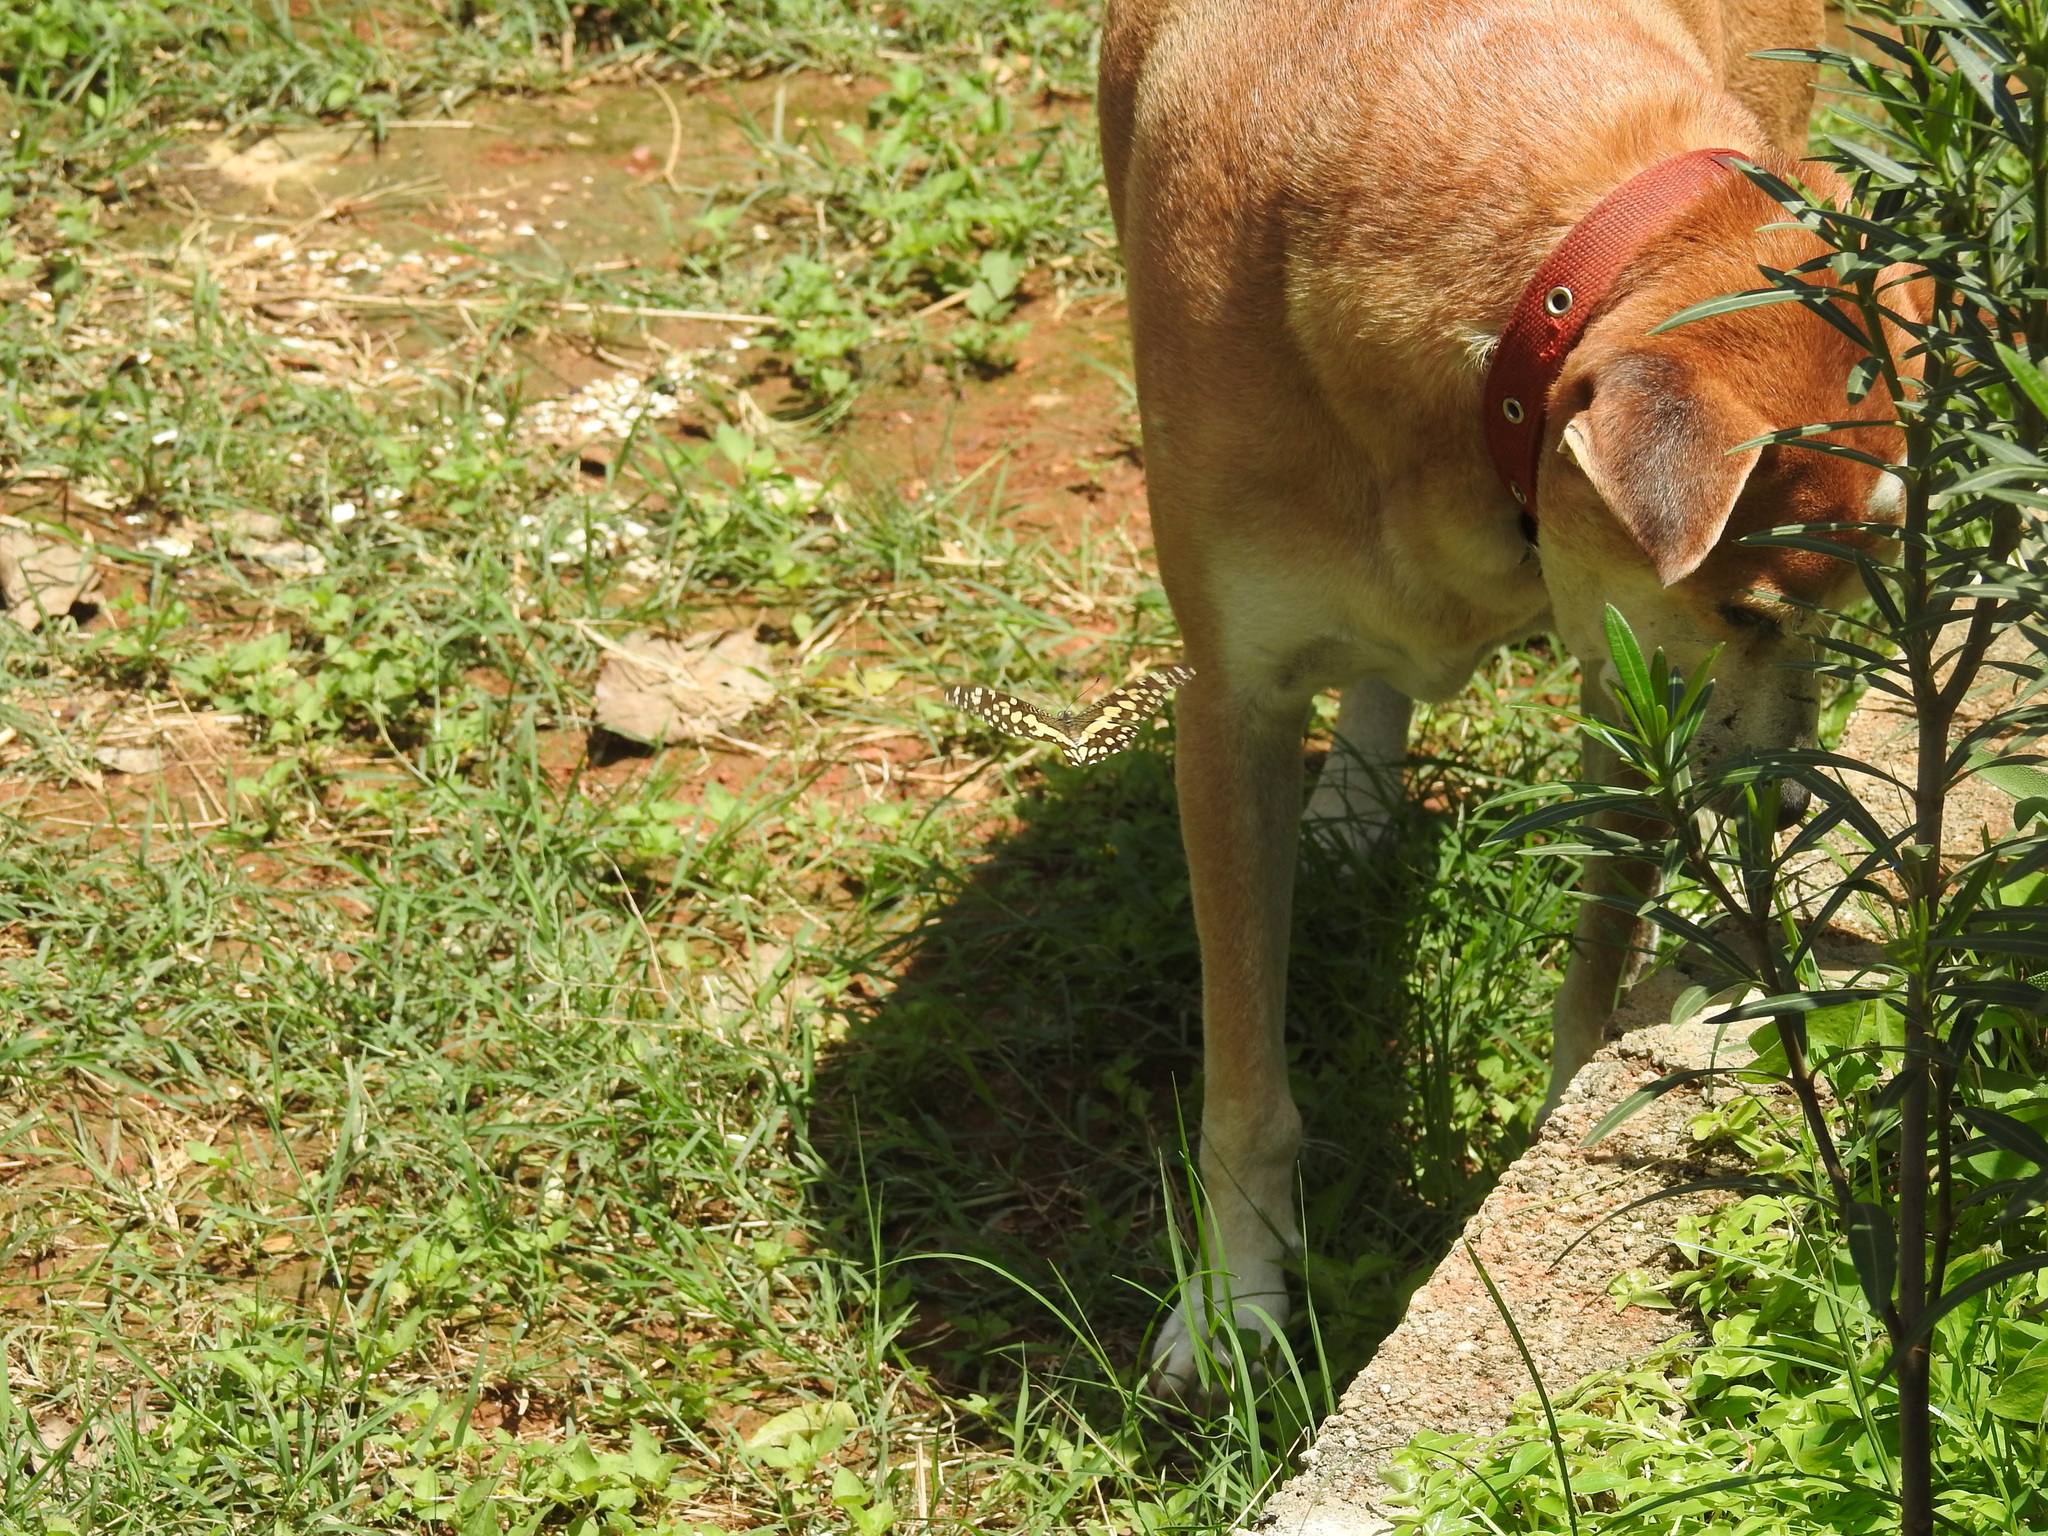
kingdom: Animalia
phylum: Arthropoda
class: Insecta
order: Lepidoptera
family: Papilionidae
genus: Papilio
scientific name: Papilio demoleus
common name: Lime butterfly
